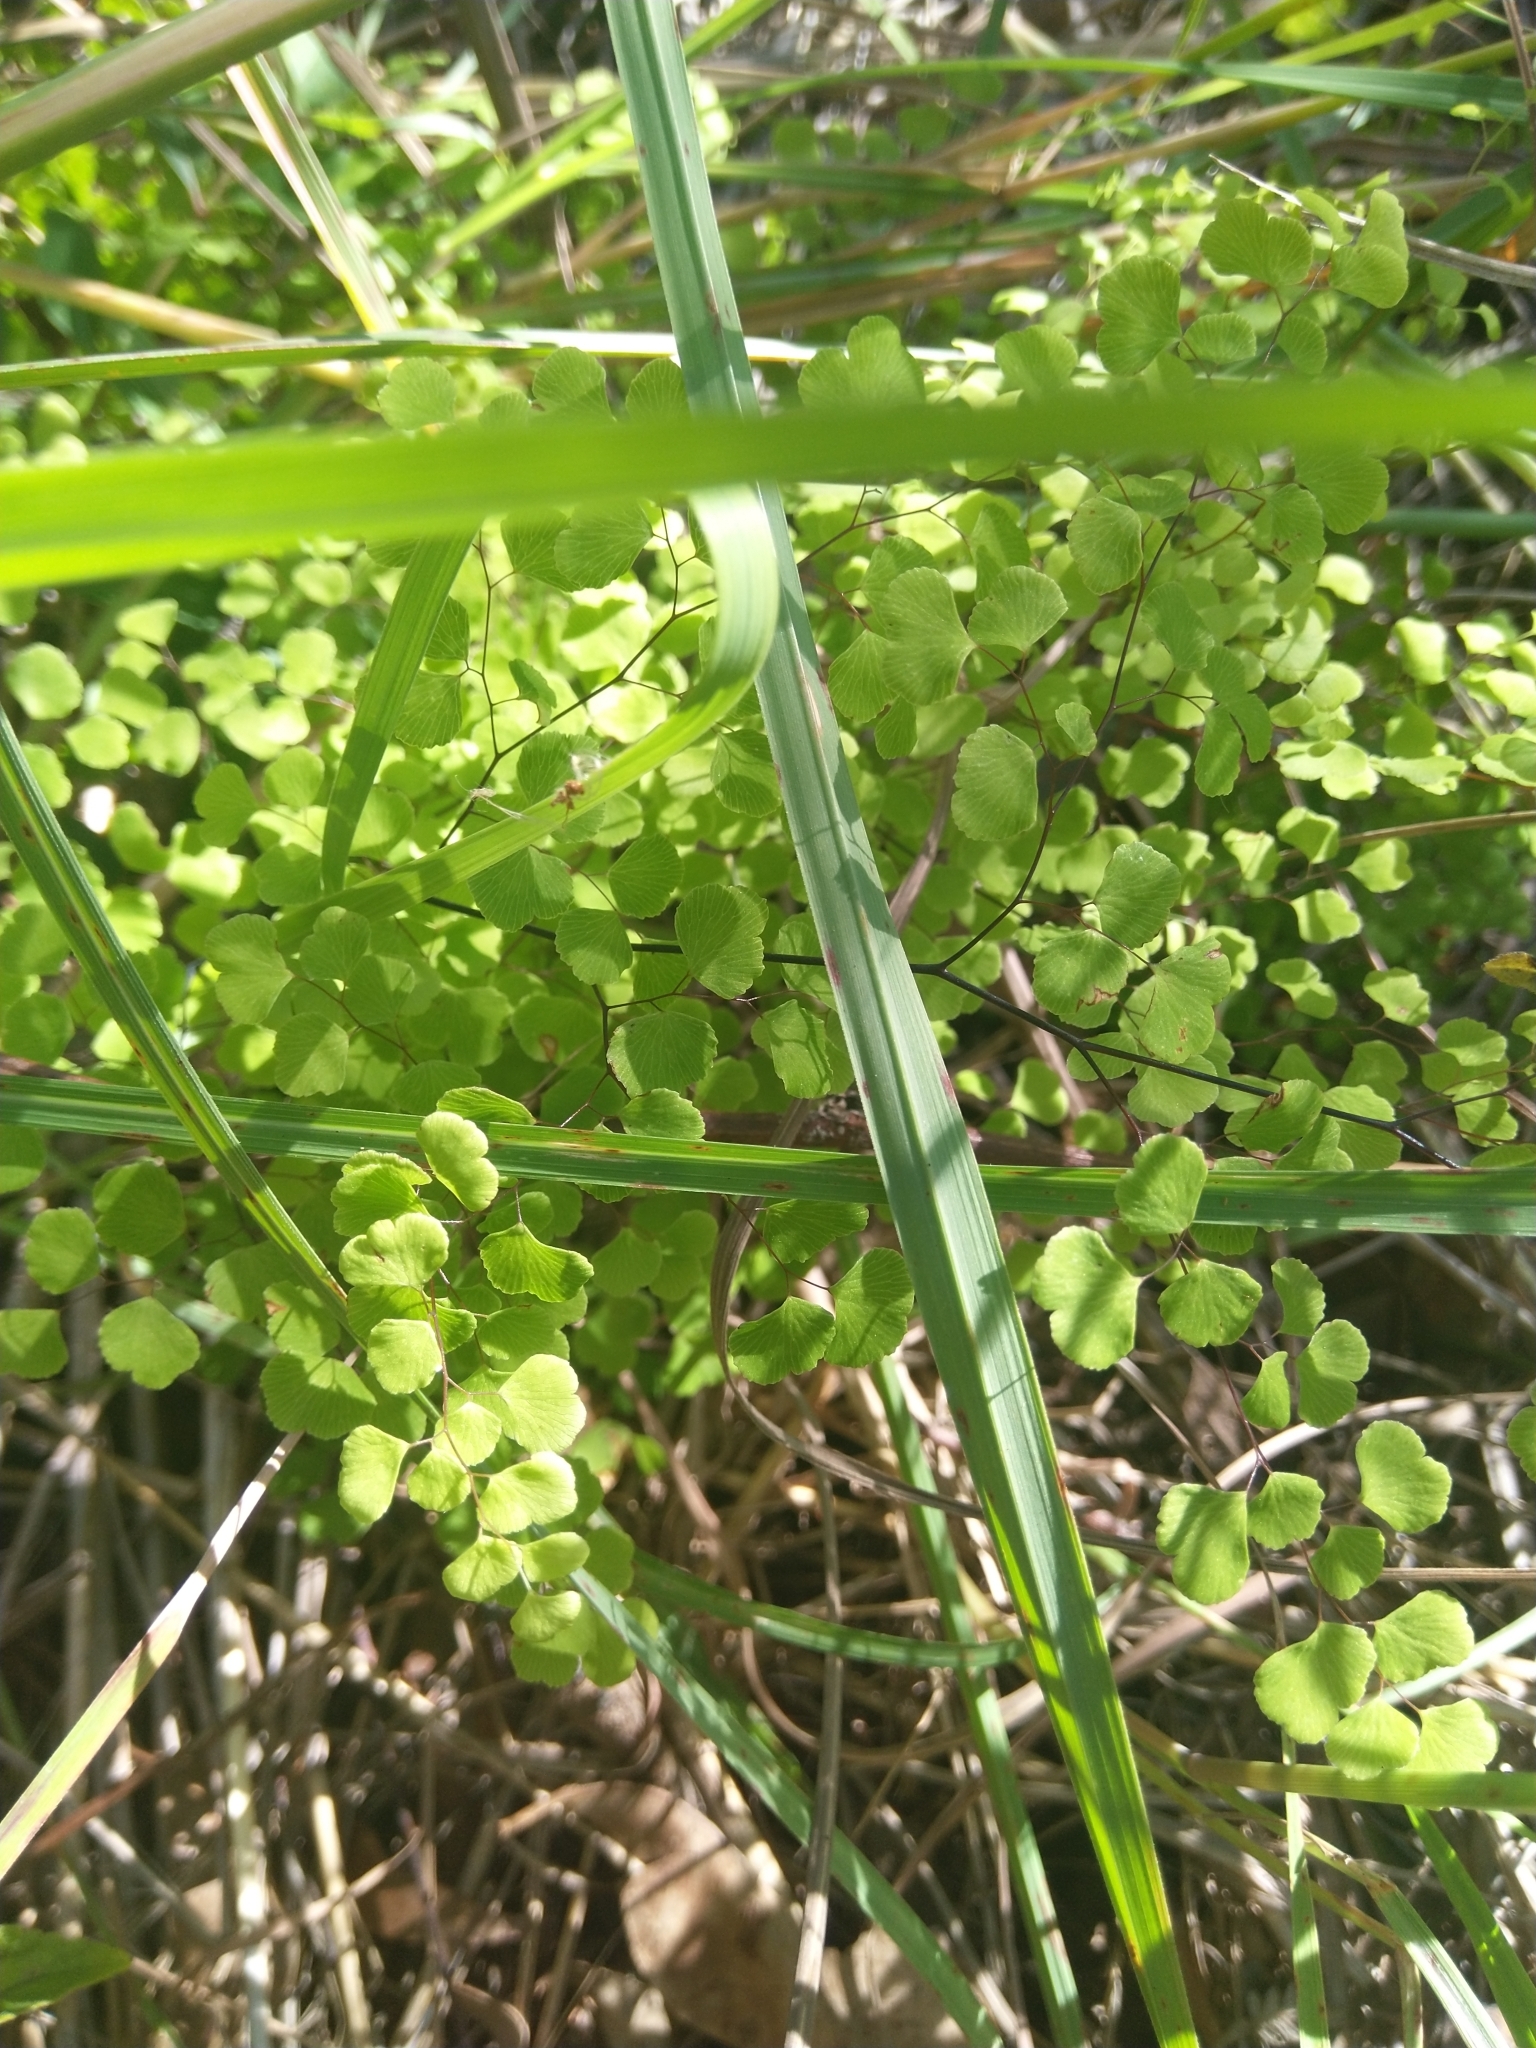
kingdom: Plantae
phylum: Tracheophyta
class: Polypodiopsida
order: Polypodiales
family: Pteridaceae
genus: Adiantum
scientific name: Adiantum aethiopicum
